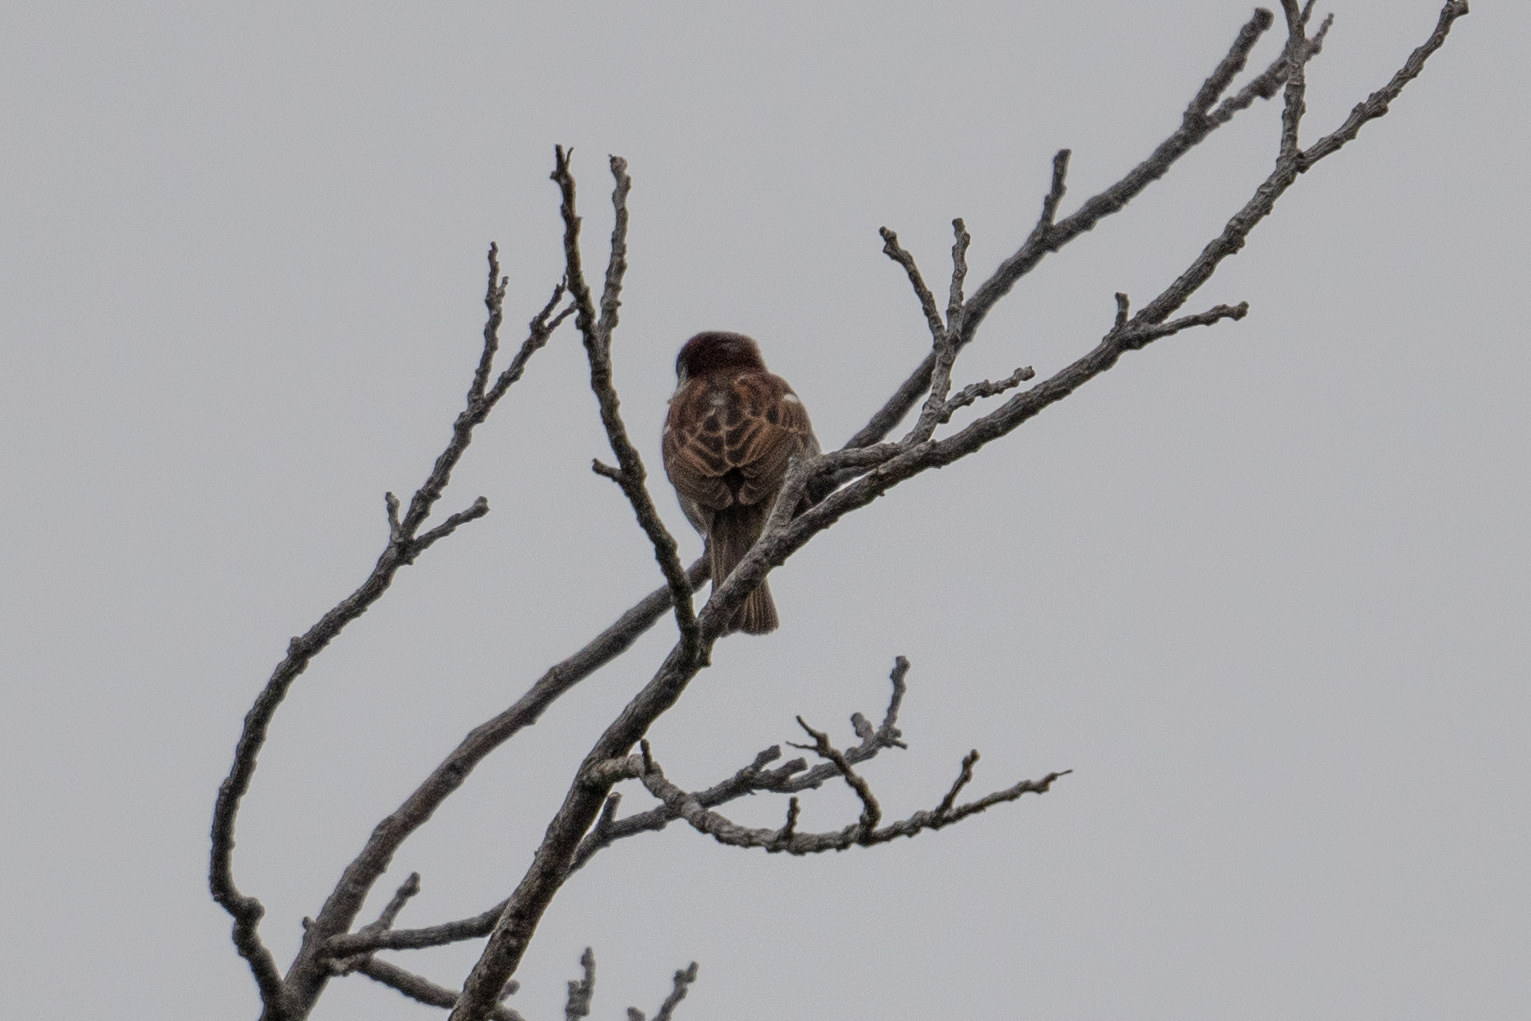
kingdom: Animalia
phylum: Chordata
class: Aves
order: Passeriformes
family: Passeridae
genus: Passer
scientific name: Passer domesticus
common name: House sparrow
